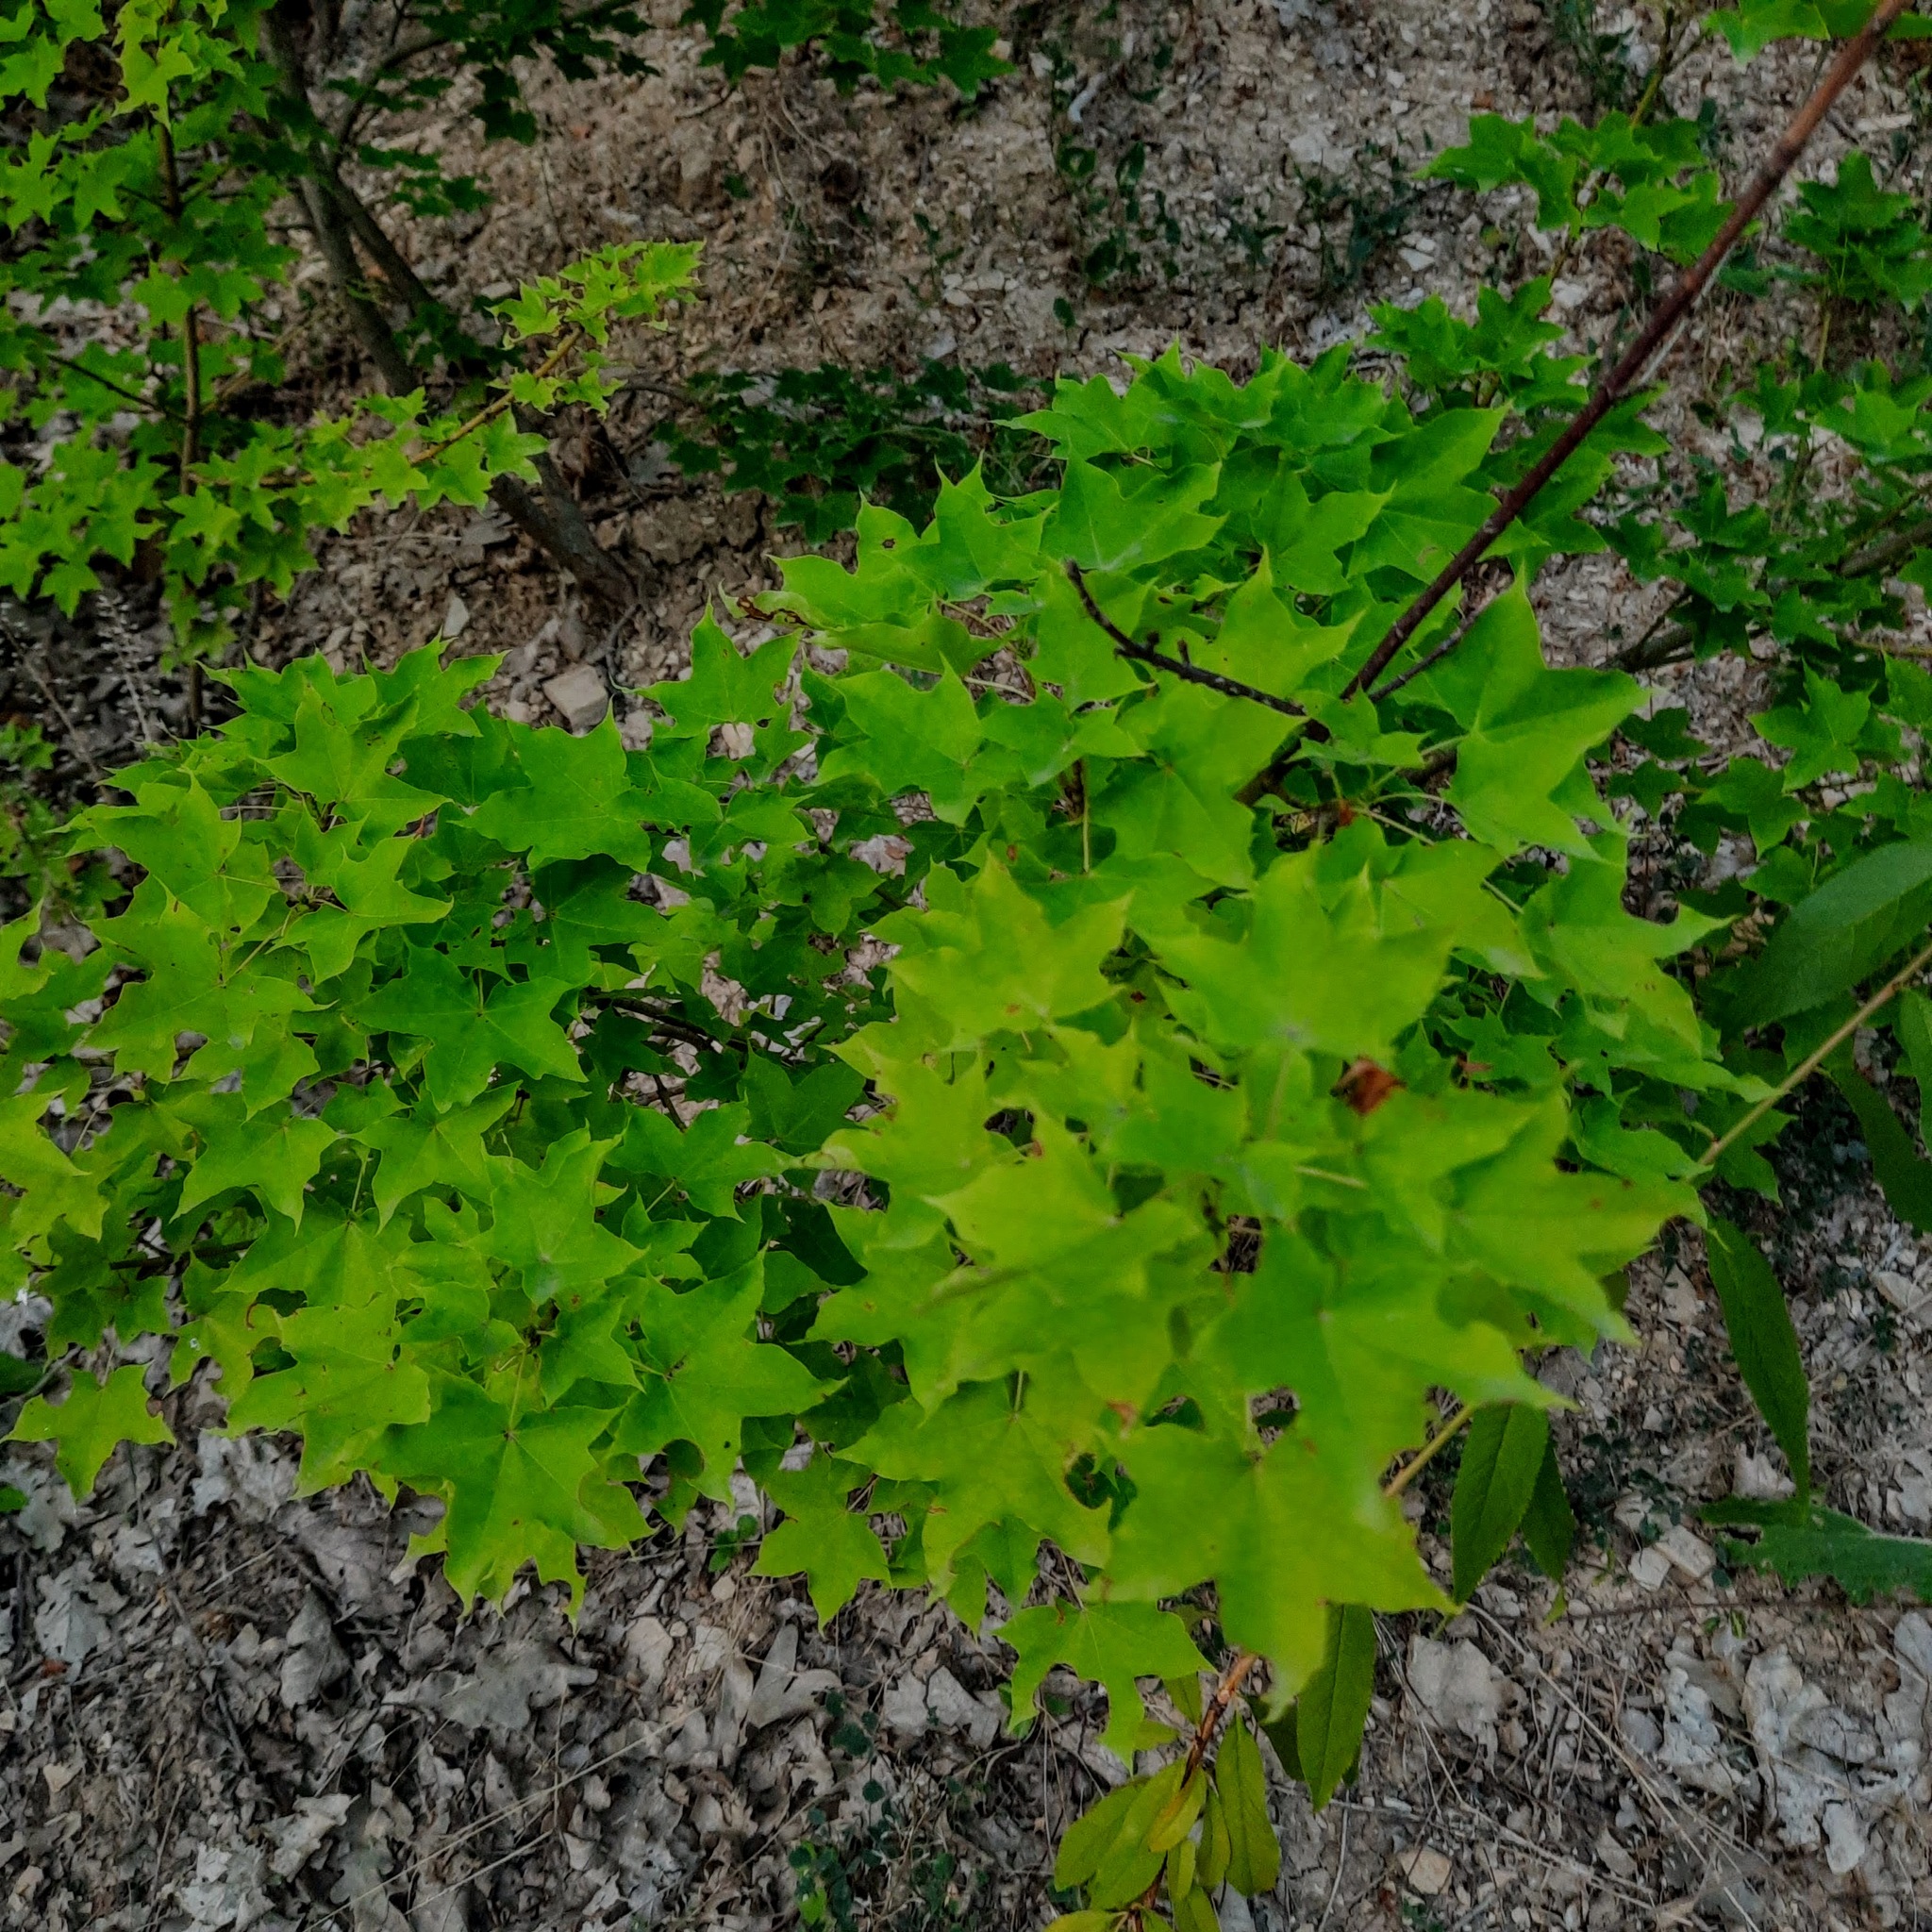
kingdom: Plantae
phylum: Tracheophyta
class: Magnoliopsida
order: Sapindales
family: Sapindaceae
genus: Acer
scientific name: Acer cappadocicum
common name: Cappadocian maple
